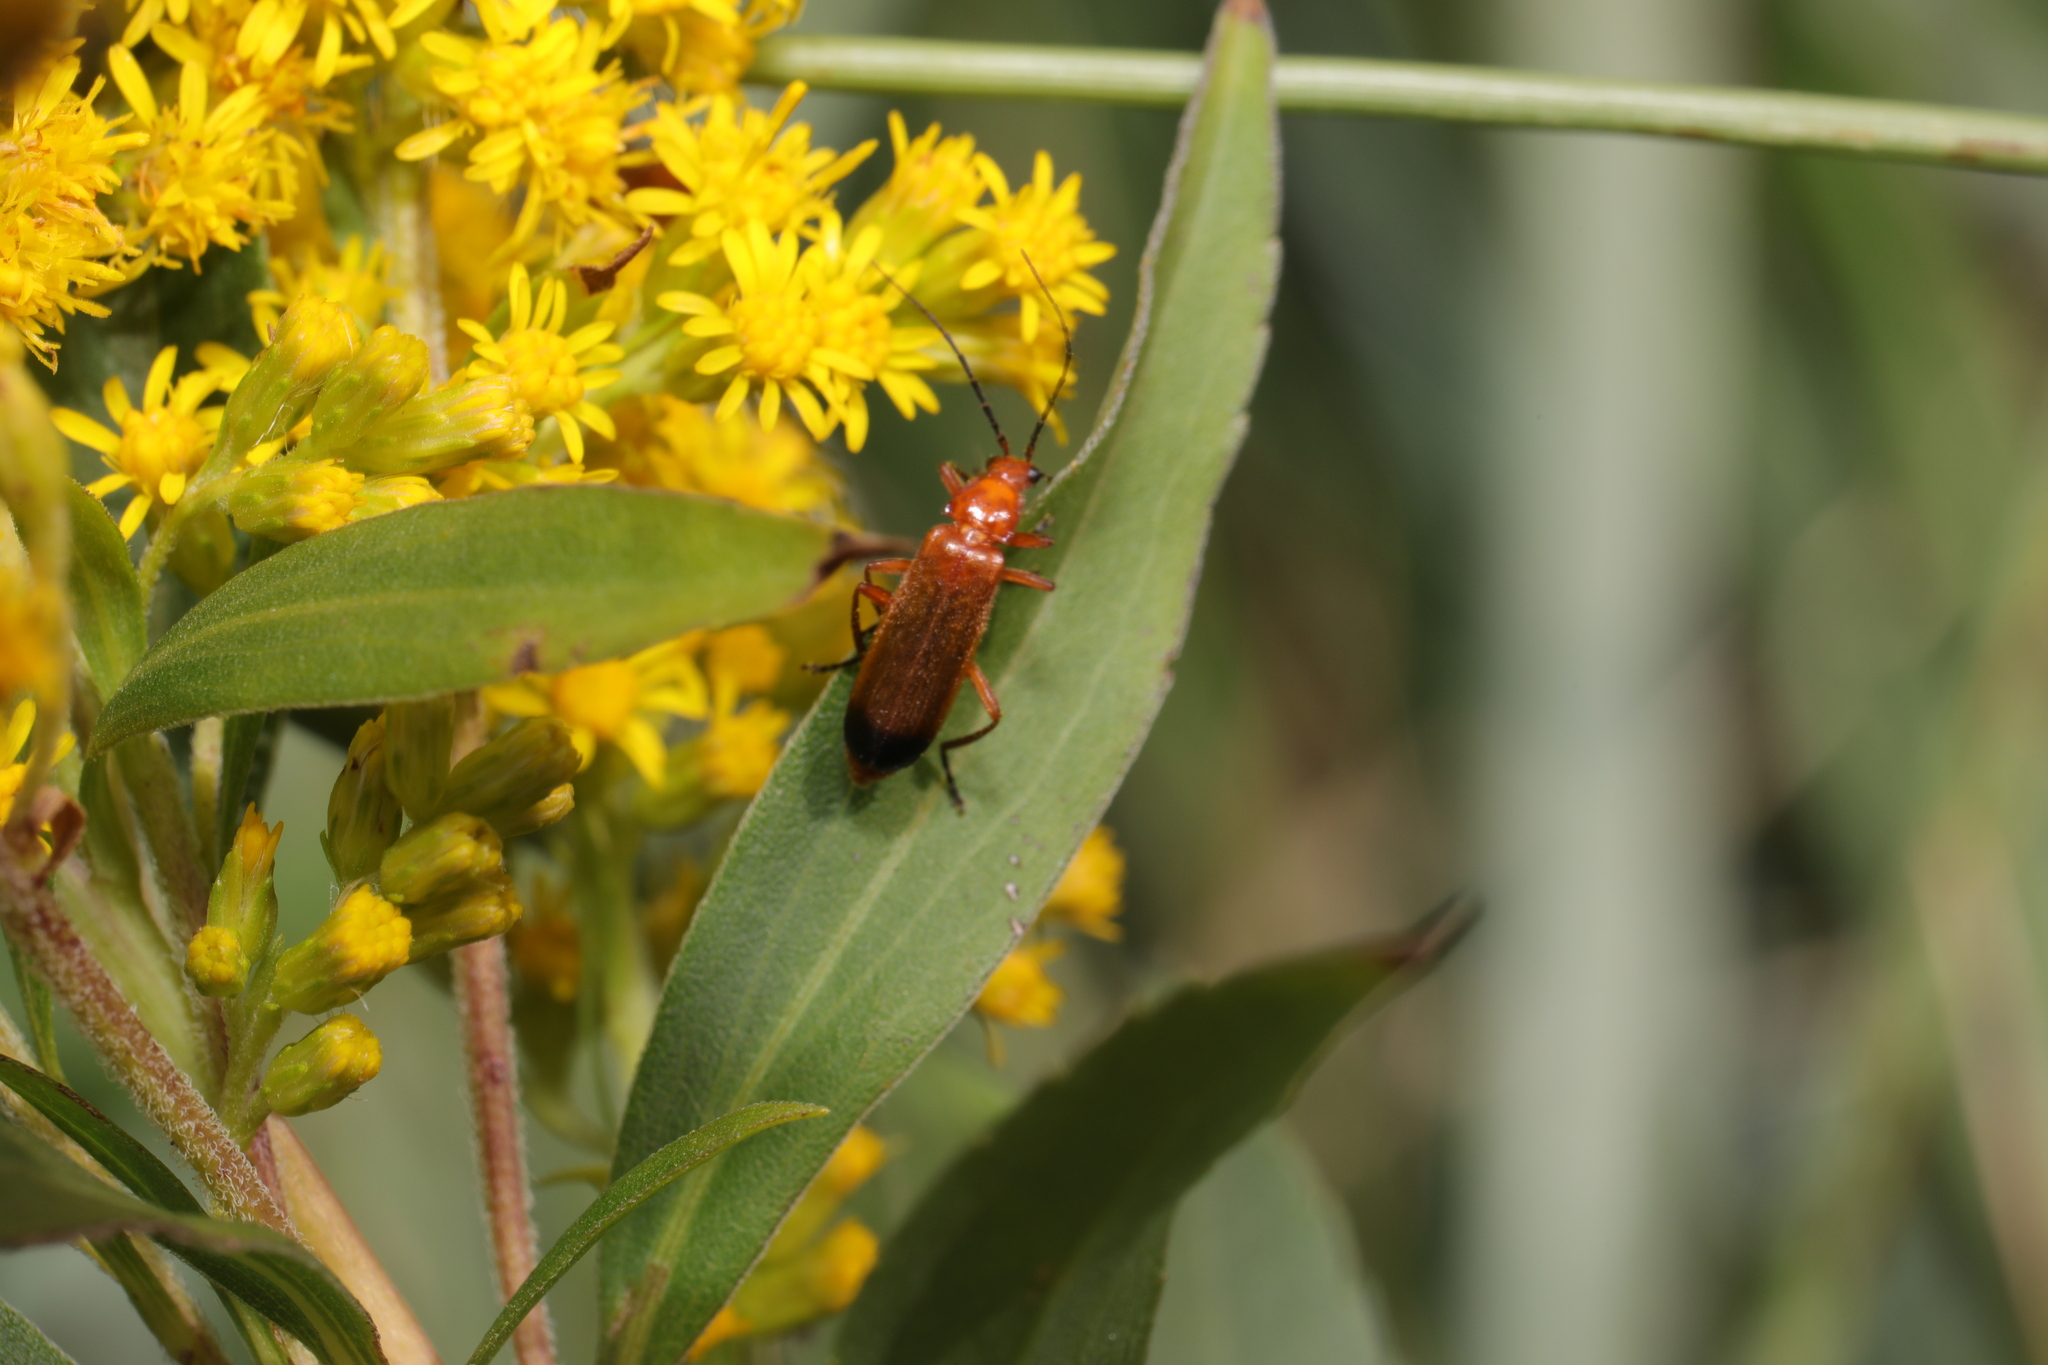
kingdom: Animalia
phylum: Arthropoda
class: Insecta
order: Coleoptera
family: Cantharidae
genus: Rhagonycha
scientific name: Rhagonycha fulva
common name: Common red soldier beetle
